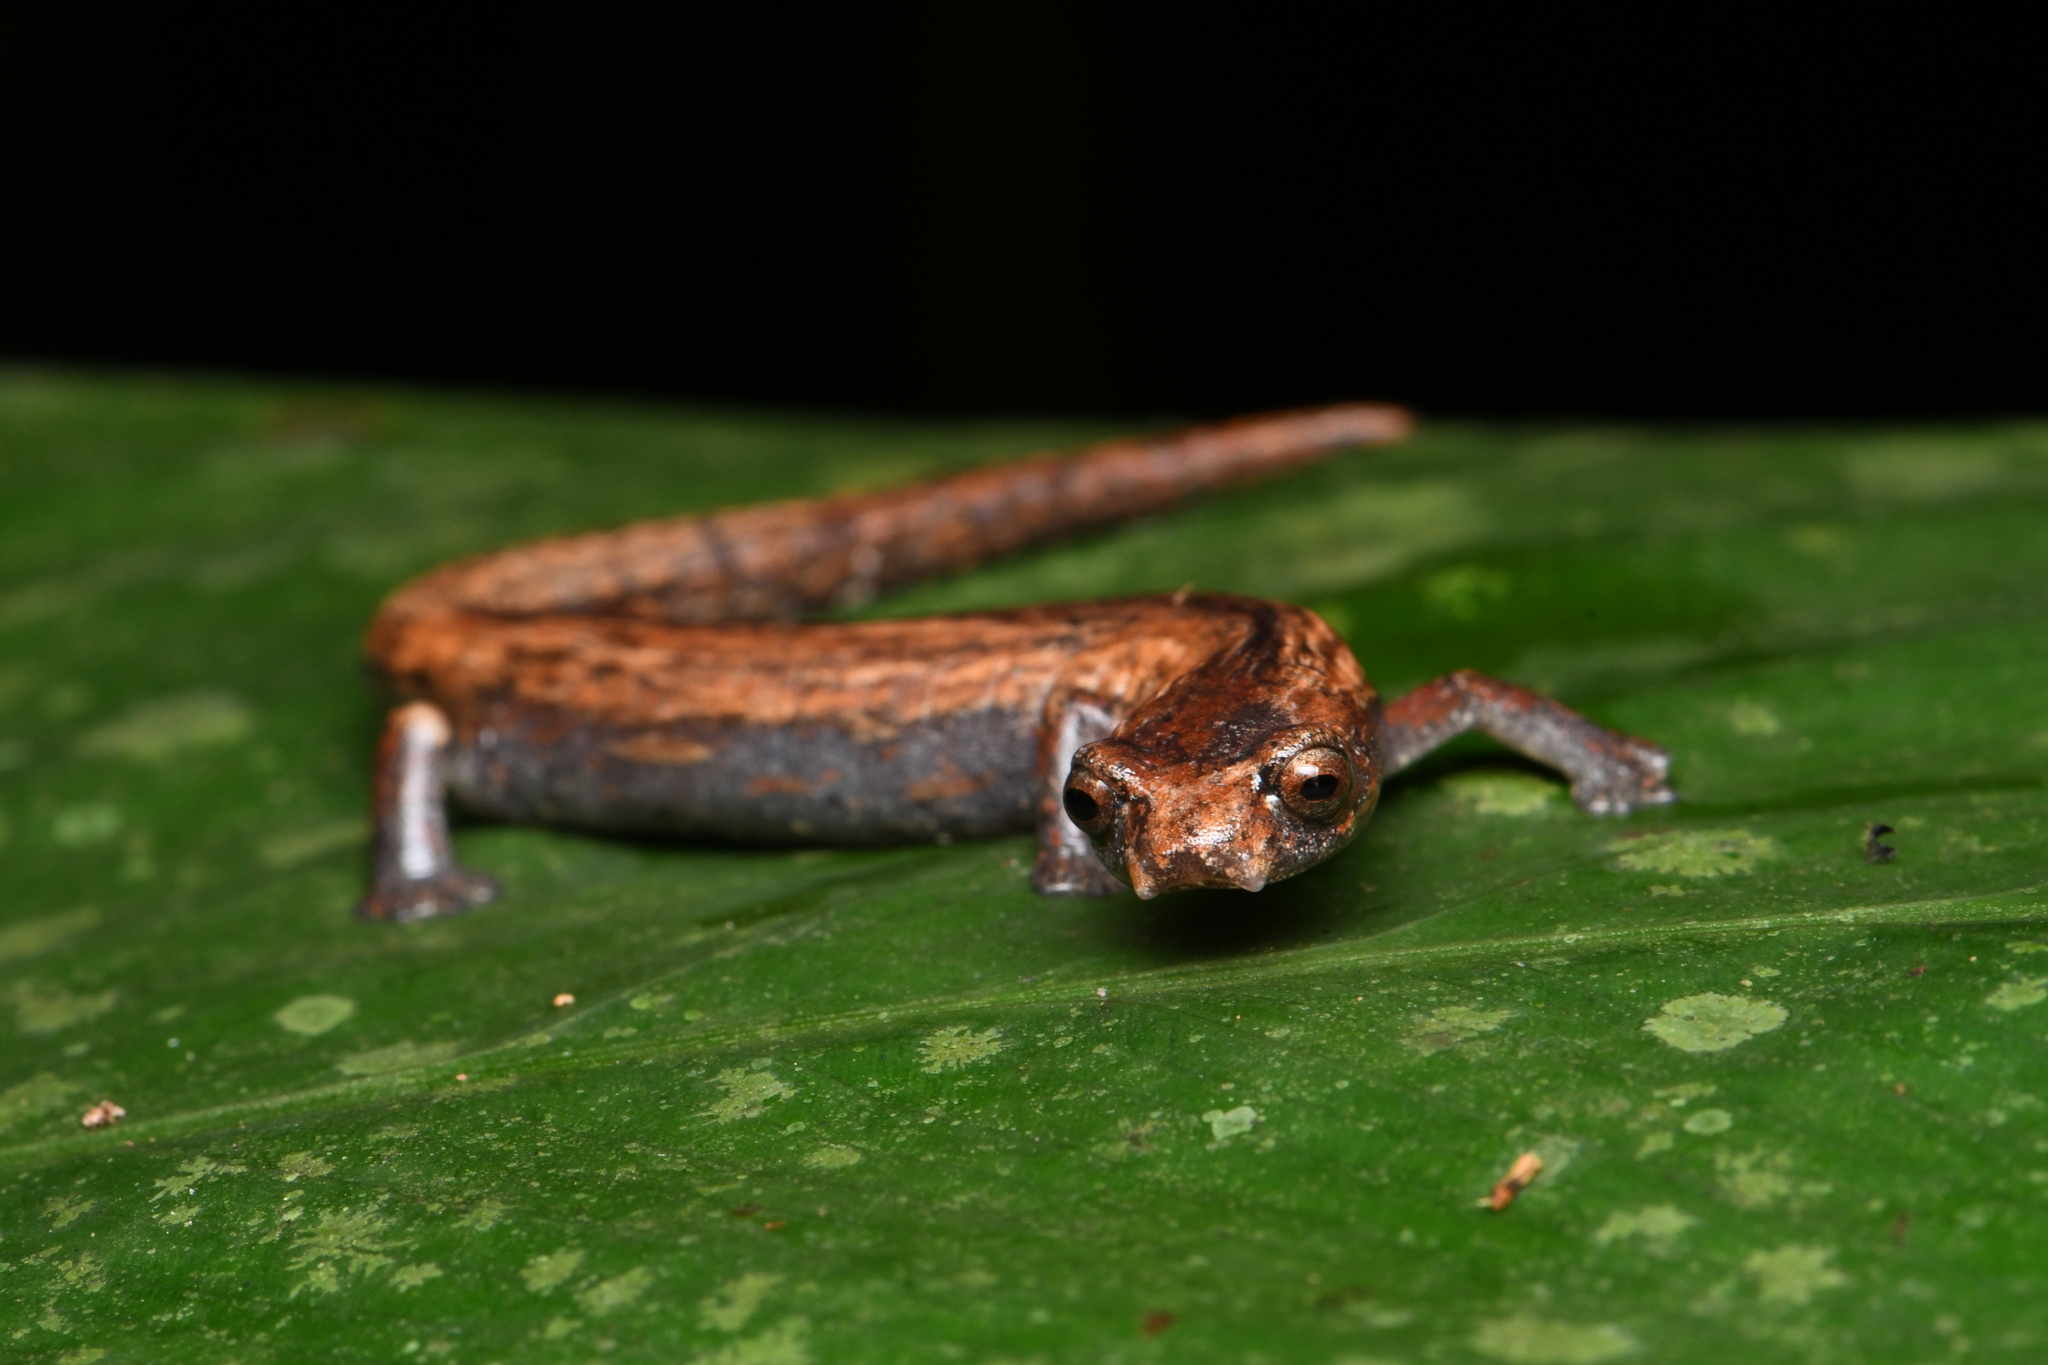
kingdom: Animalia
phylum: Chordata
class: Amphibia
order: Caudata
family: Plethodontidae
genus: Bolitoglossa
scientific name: Bolitoglossa altamazonica
